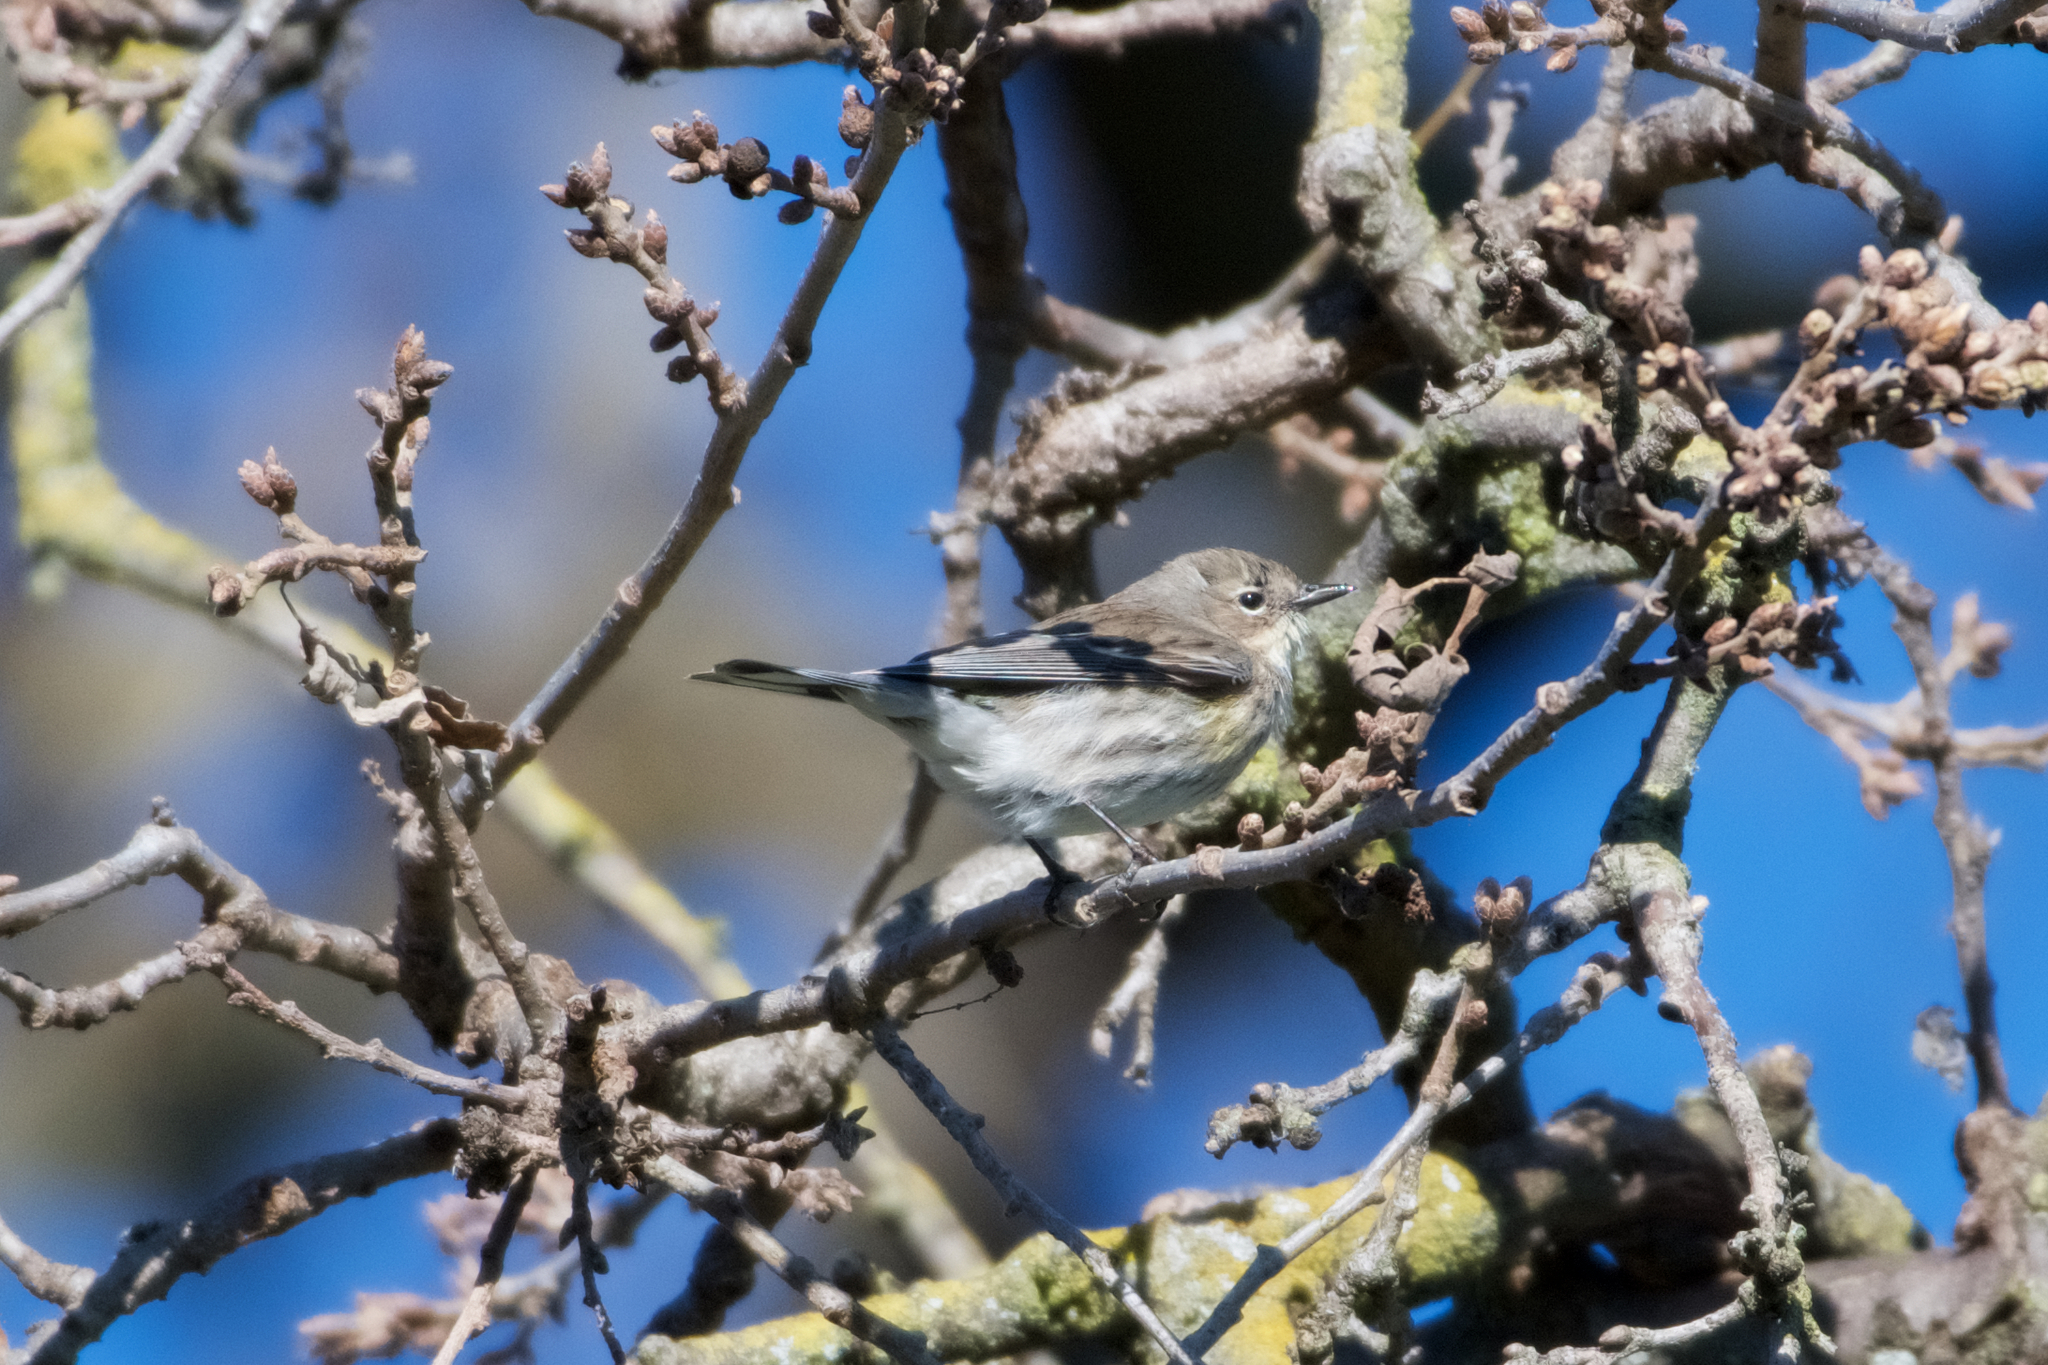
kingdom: Animalia
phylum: Chordata
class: Aves
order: Passeriformes
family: Parulidae
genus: Setophaga
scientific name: Setophaga coronata
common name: Myrtle warbler
